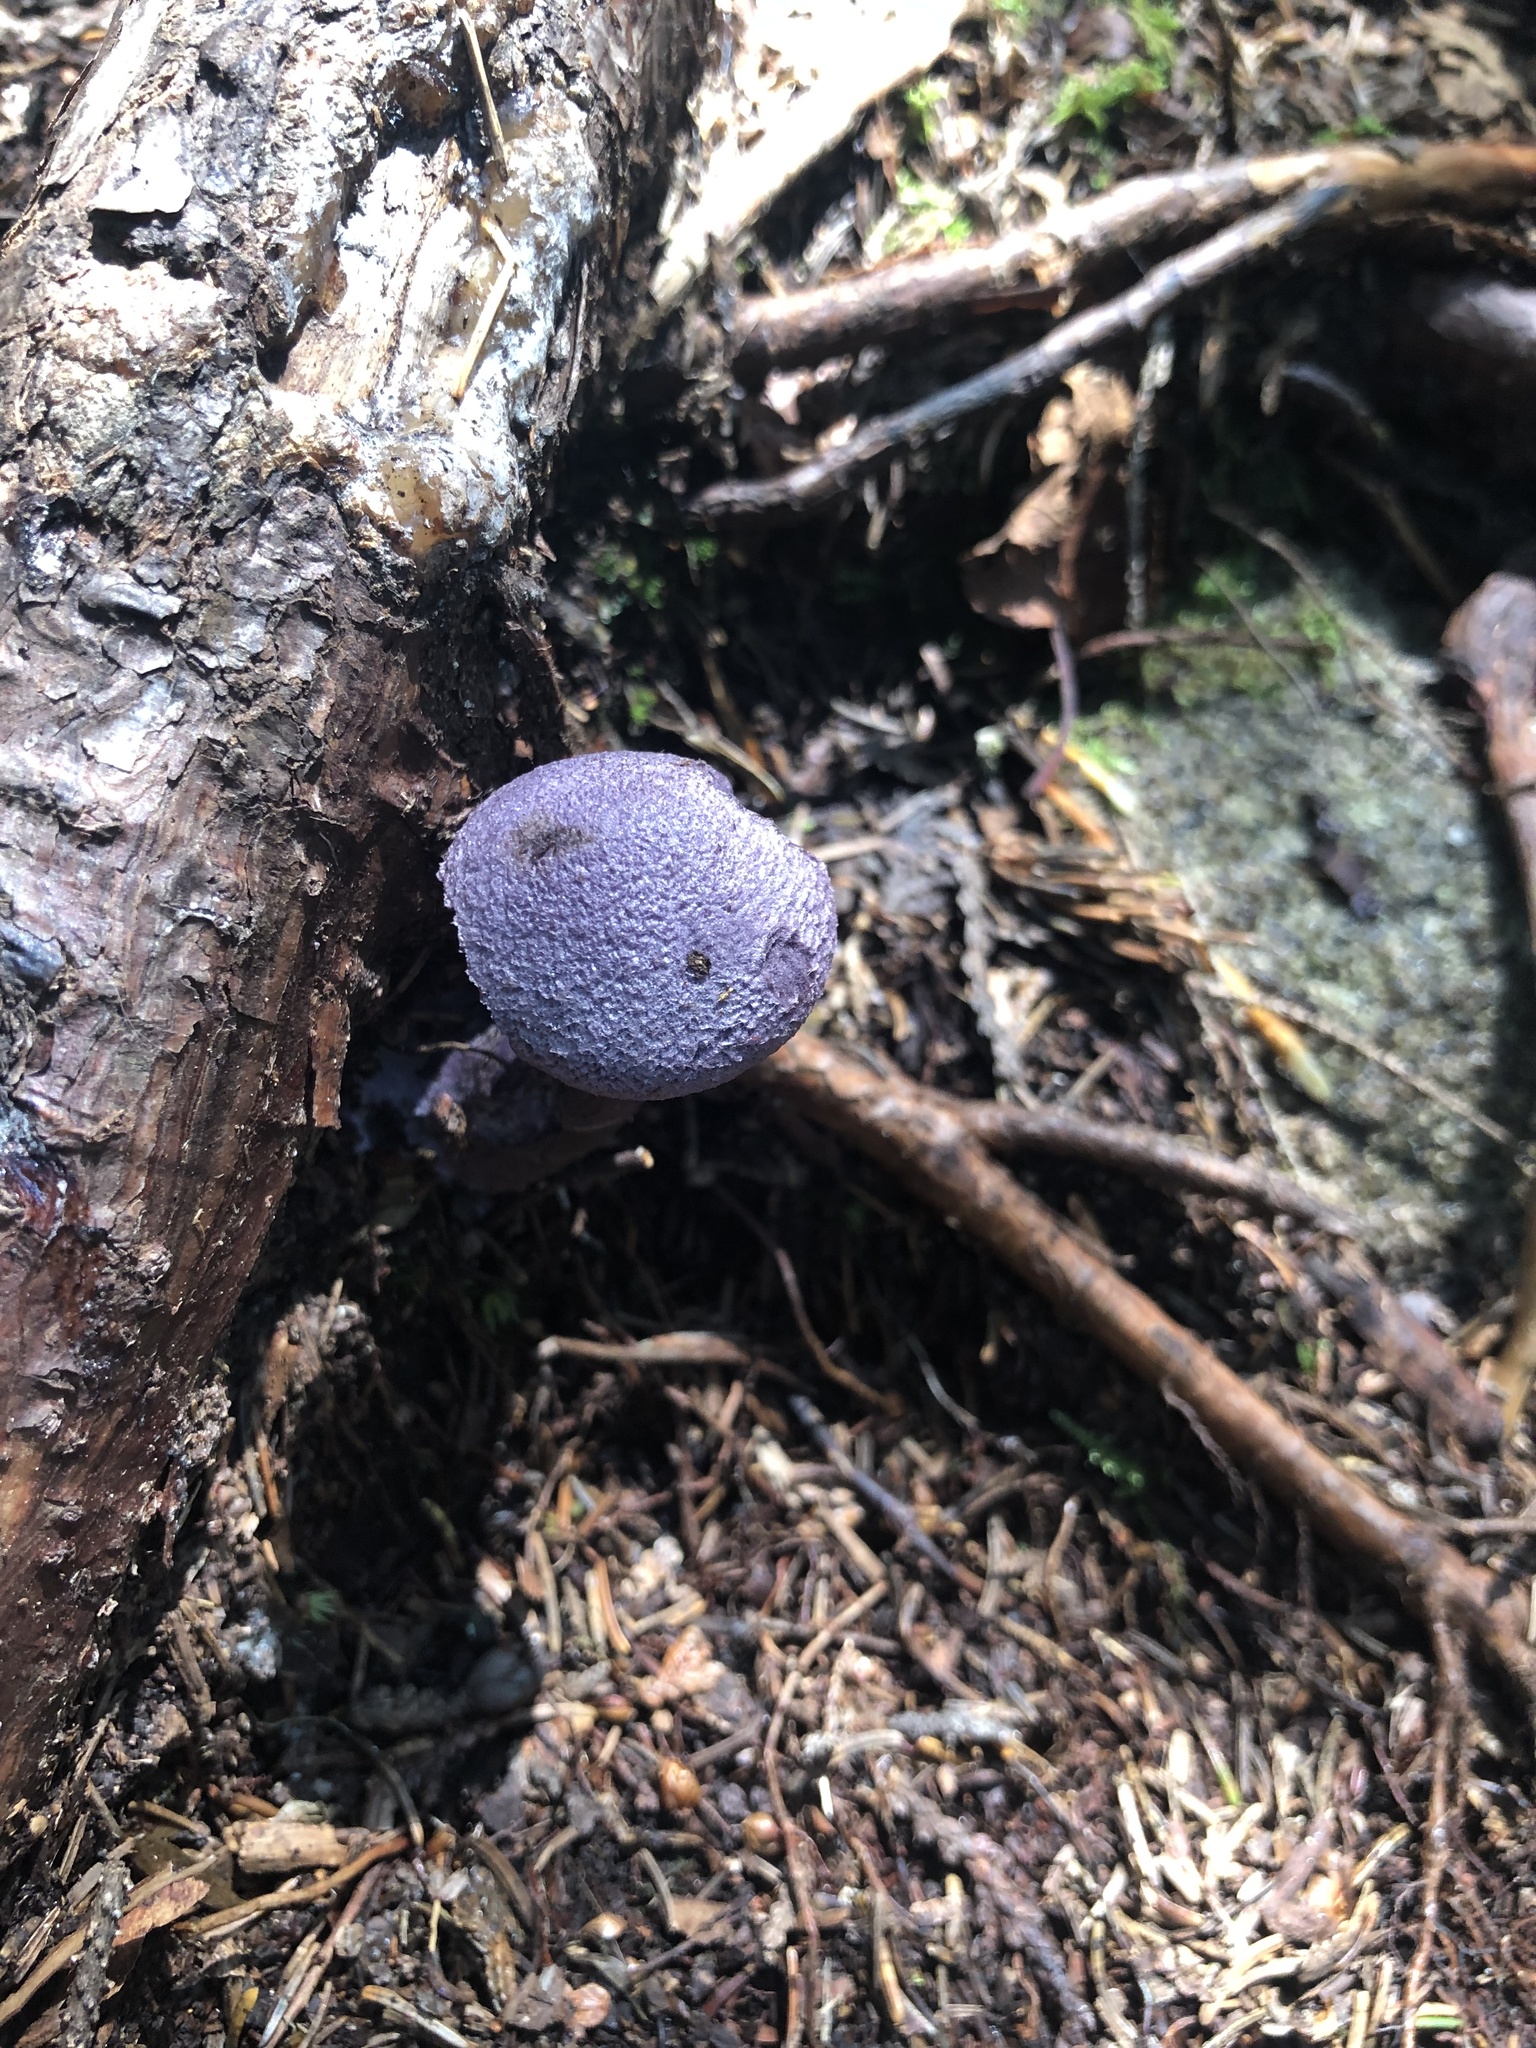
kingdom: Fungi
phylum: Basidiomycota
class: Agaricomycetes
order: Agaricales
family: Cortinariaceae
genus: Cortinarius
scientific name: Cortinarius violaceus
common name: Violet webcap
